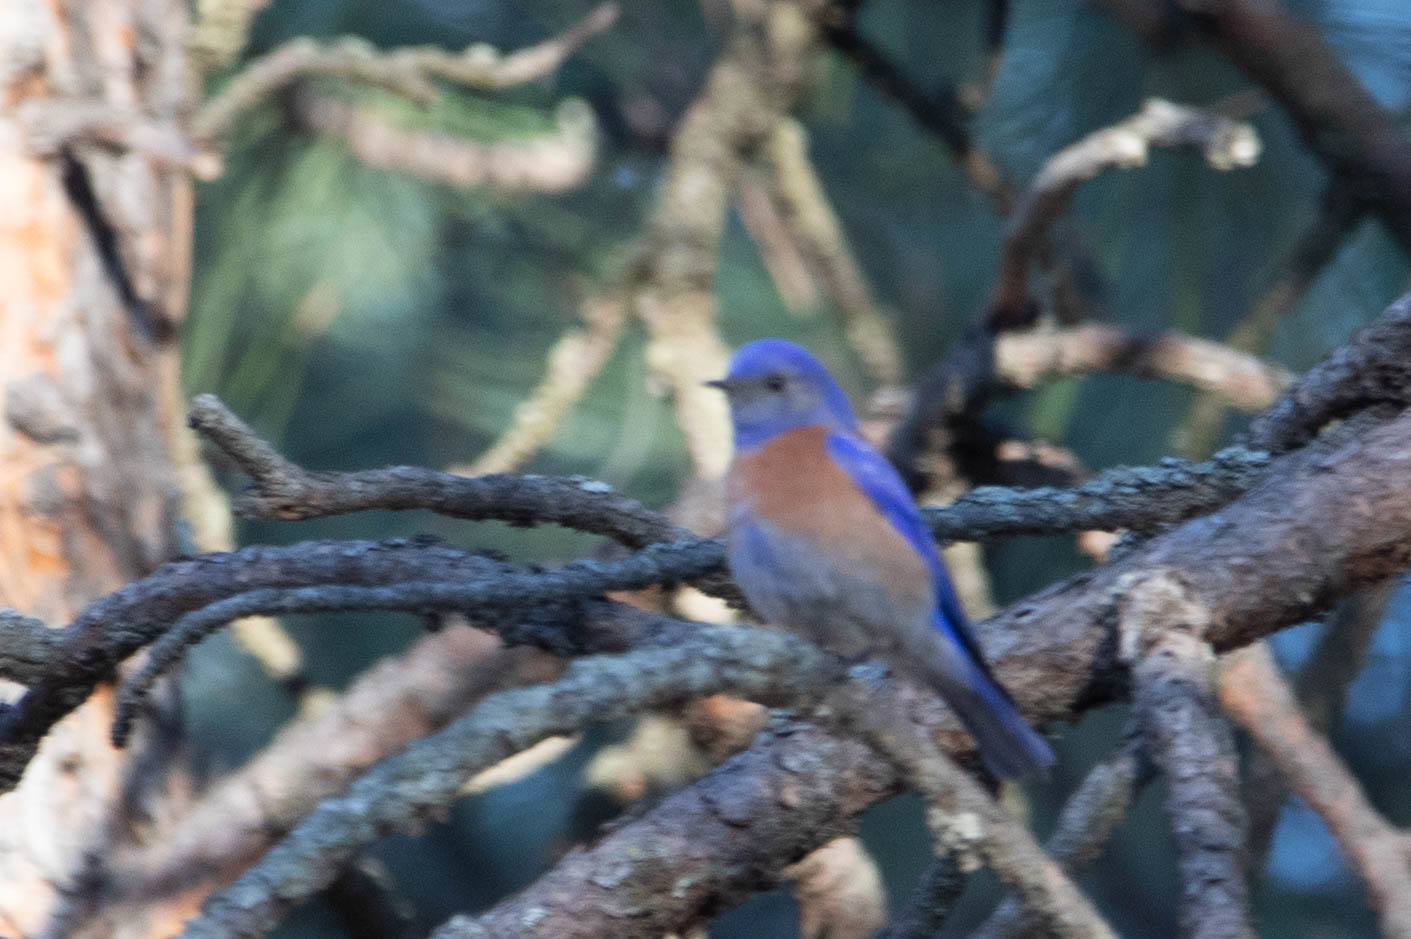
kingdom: Animalia
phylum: Chordata
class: Aves
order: Passeriformes
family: Turdidae
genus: Sialia
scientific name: Sialia mexicana
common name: Western bluebird
